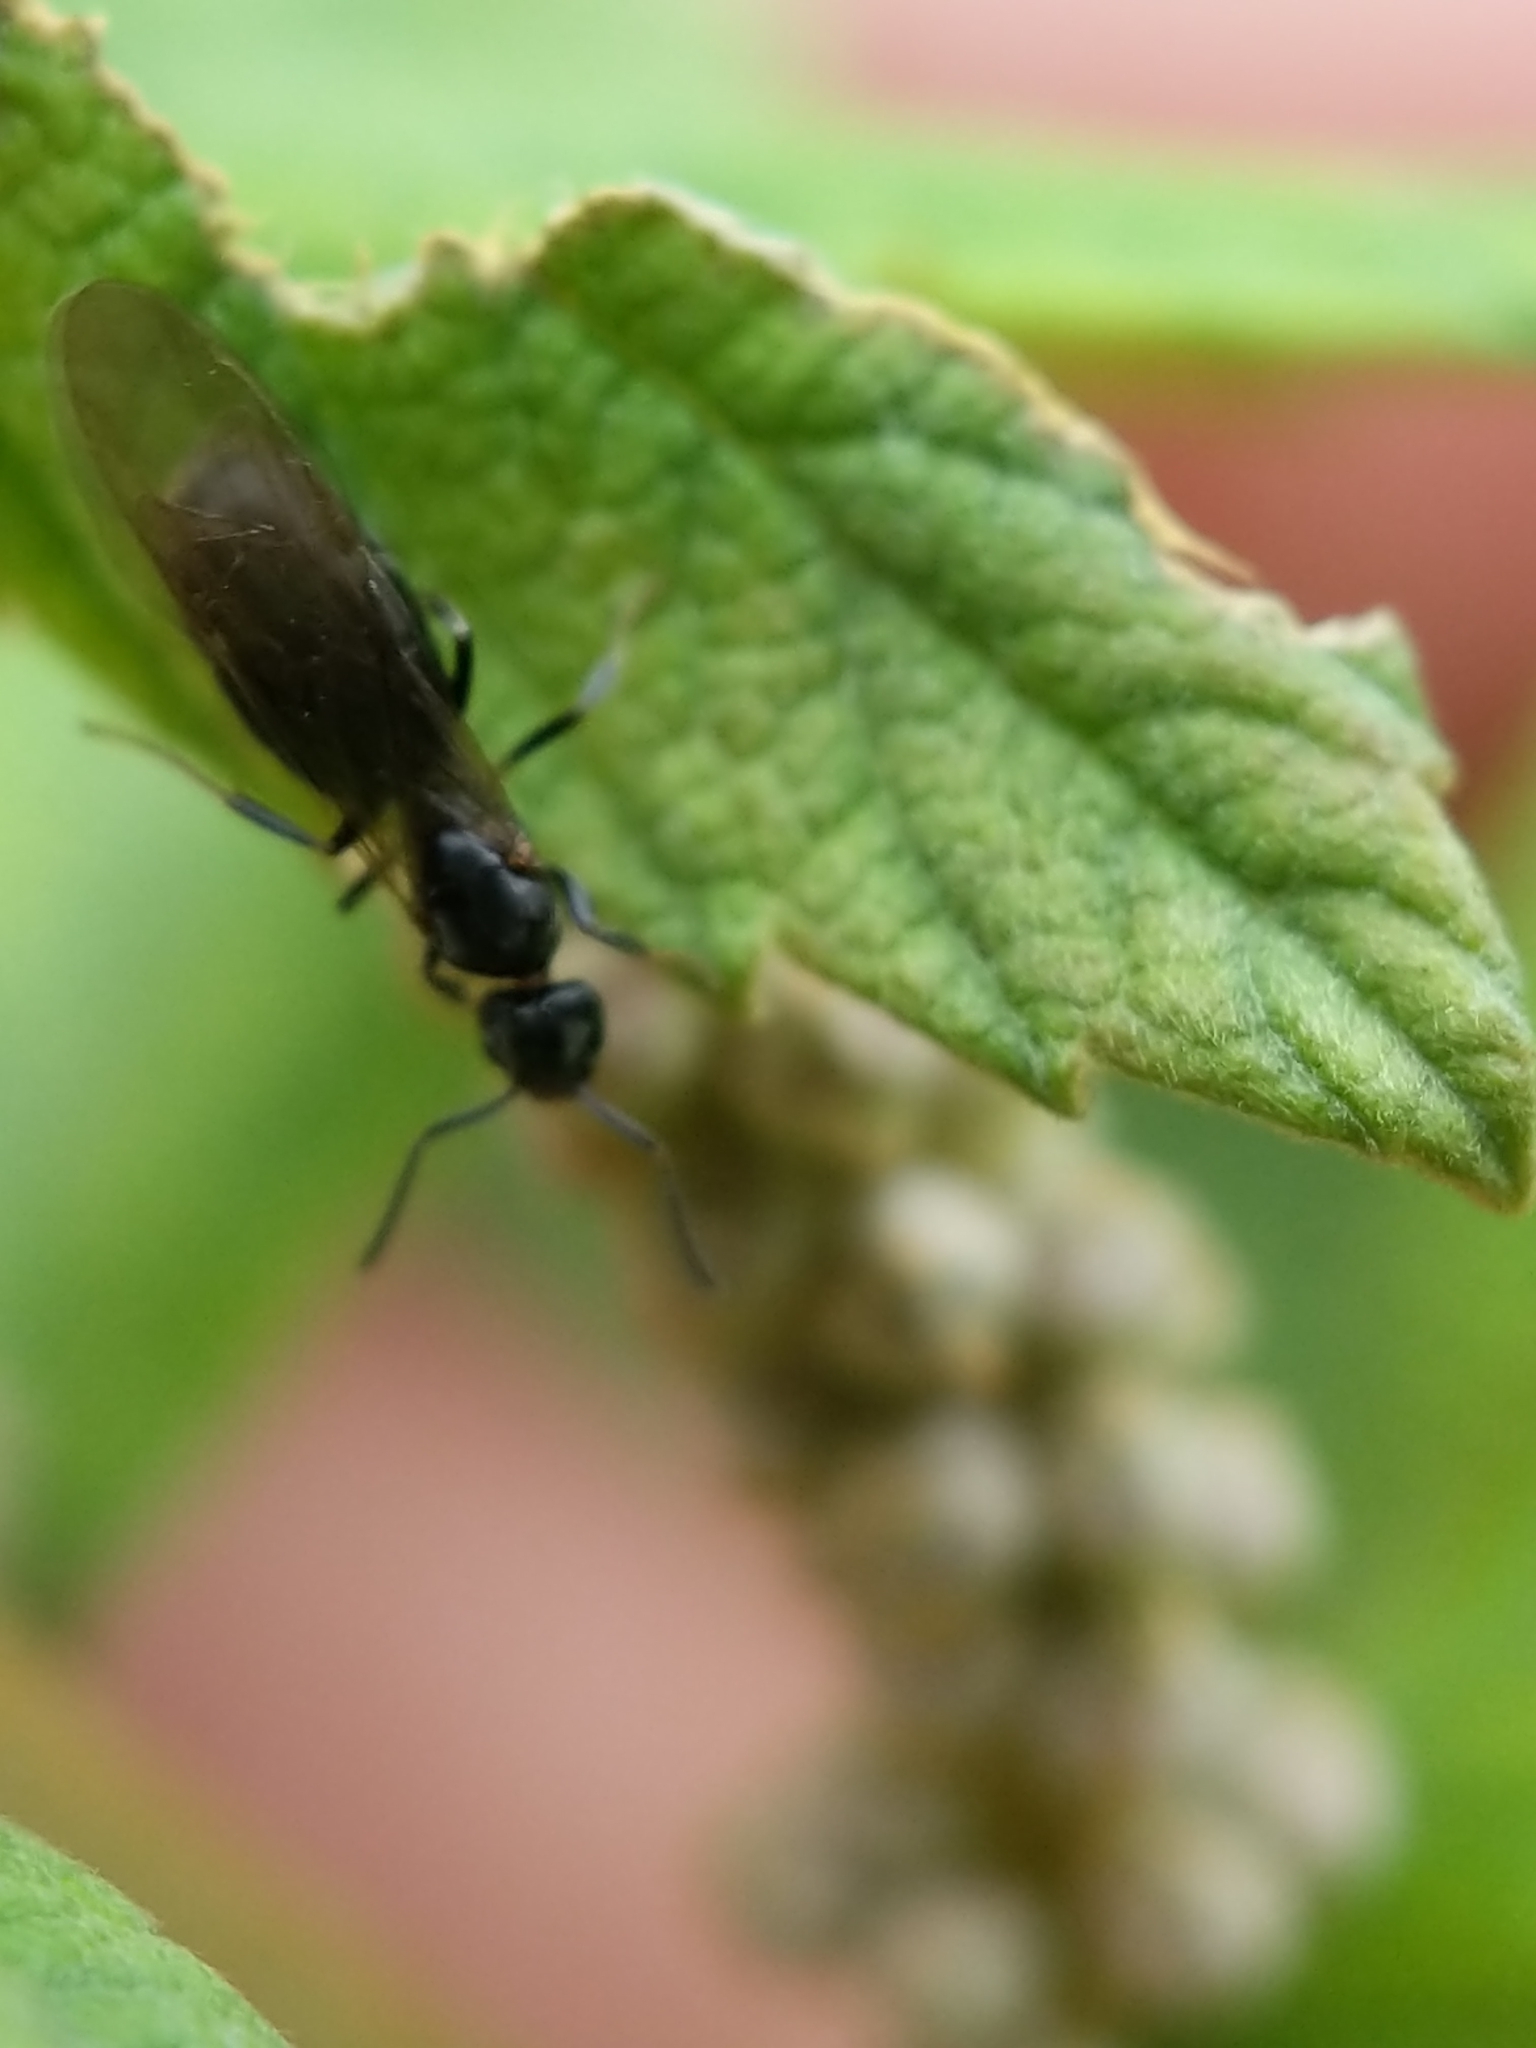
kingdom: Animalia
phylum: Arthropoda
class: Insecta
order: Hymenoptera
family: Formicidae
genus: Tapinoma
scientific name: Tapinoma sessile
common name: Odorous house ant
